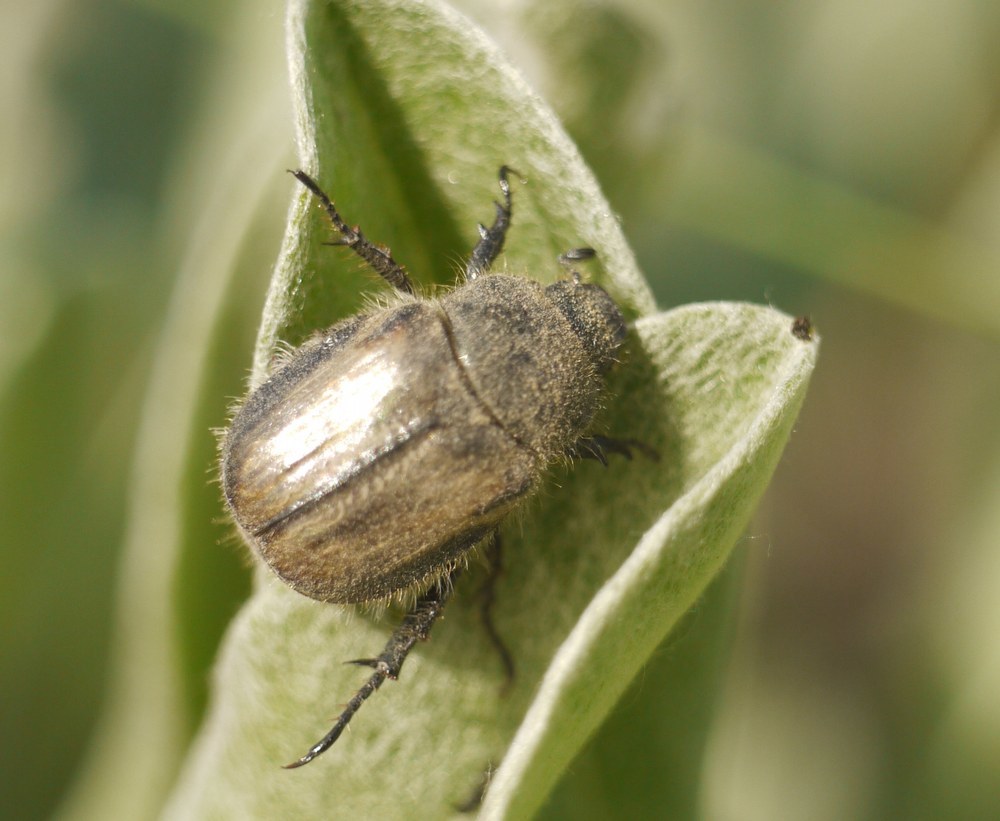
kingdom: Animalia
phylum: Arthropoda
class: Insecta
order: Coleoptera
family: Scarabaeidae
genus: Blitopertha
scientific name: Blitopertha lineolata
